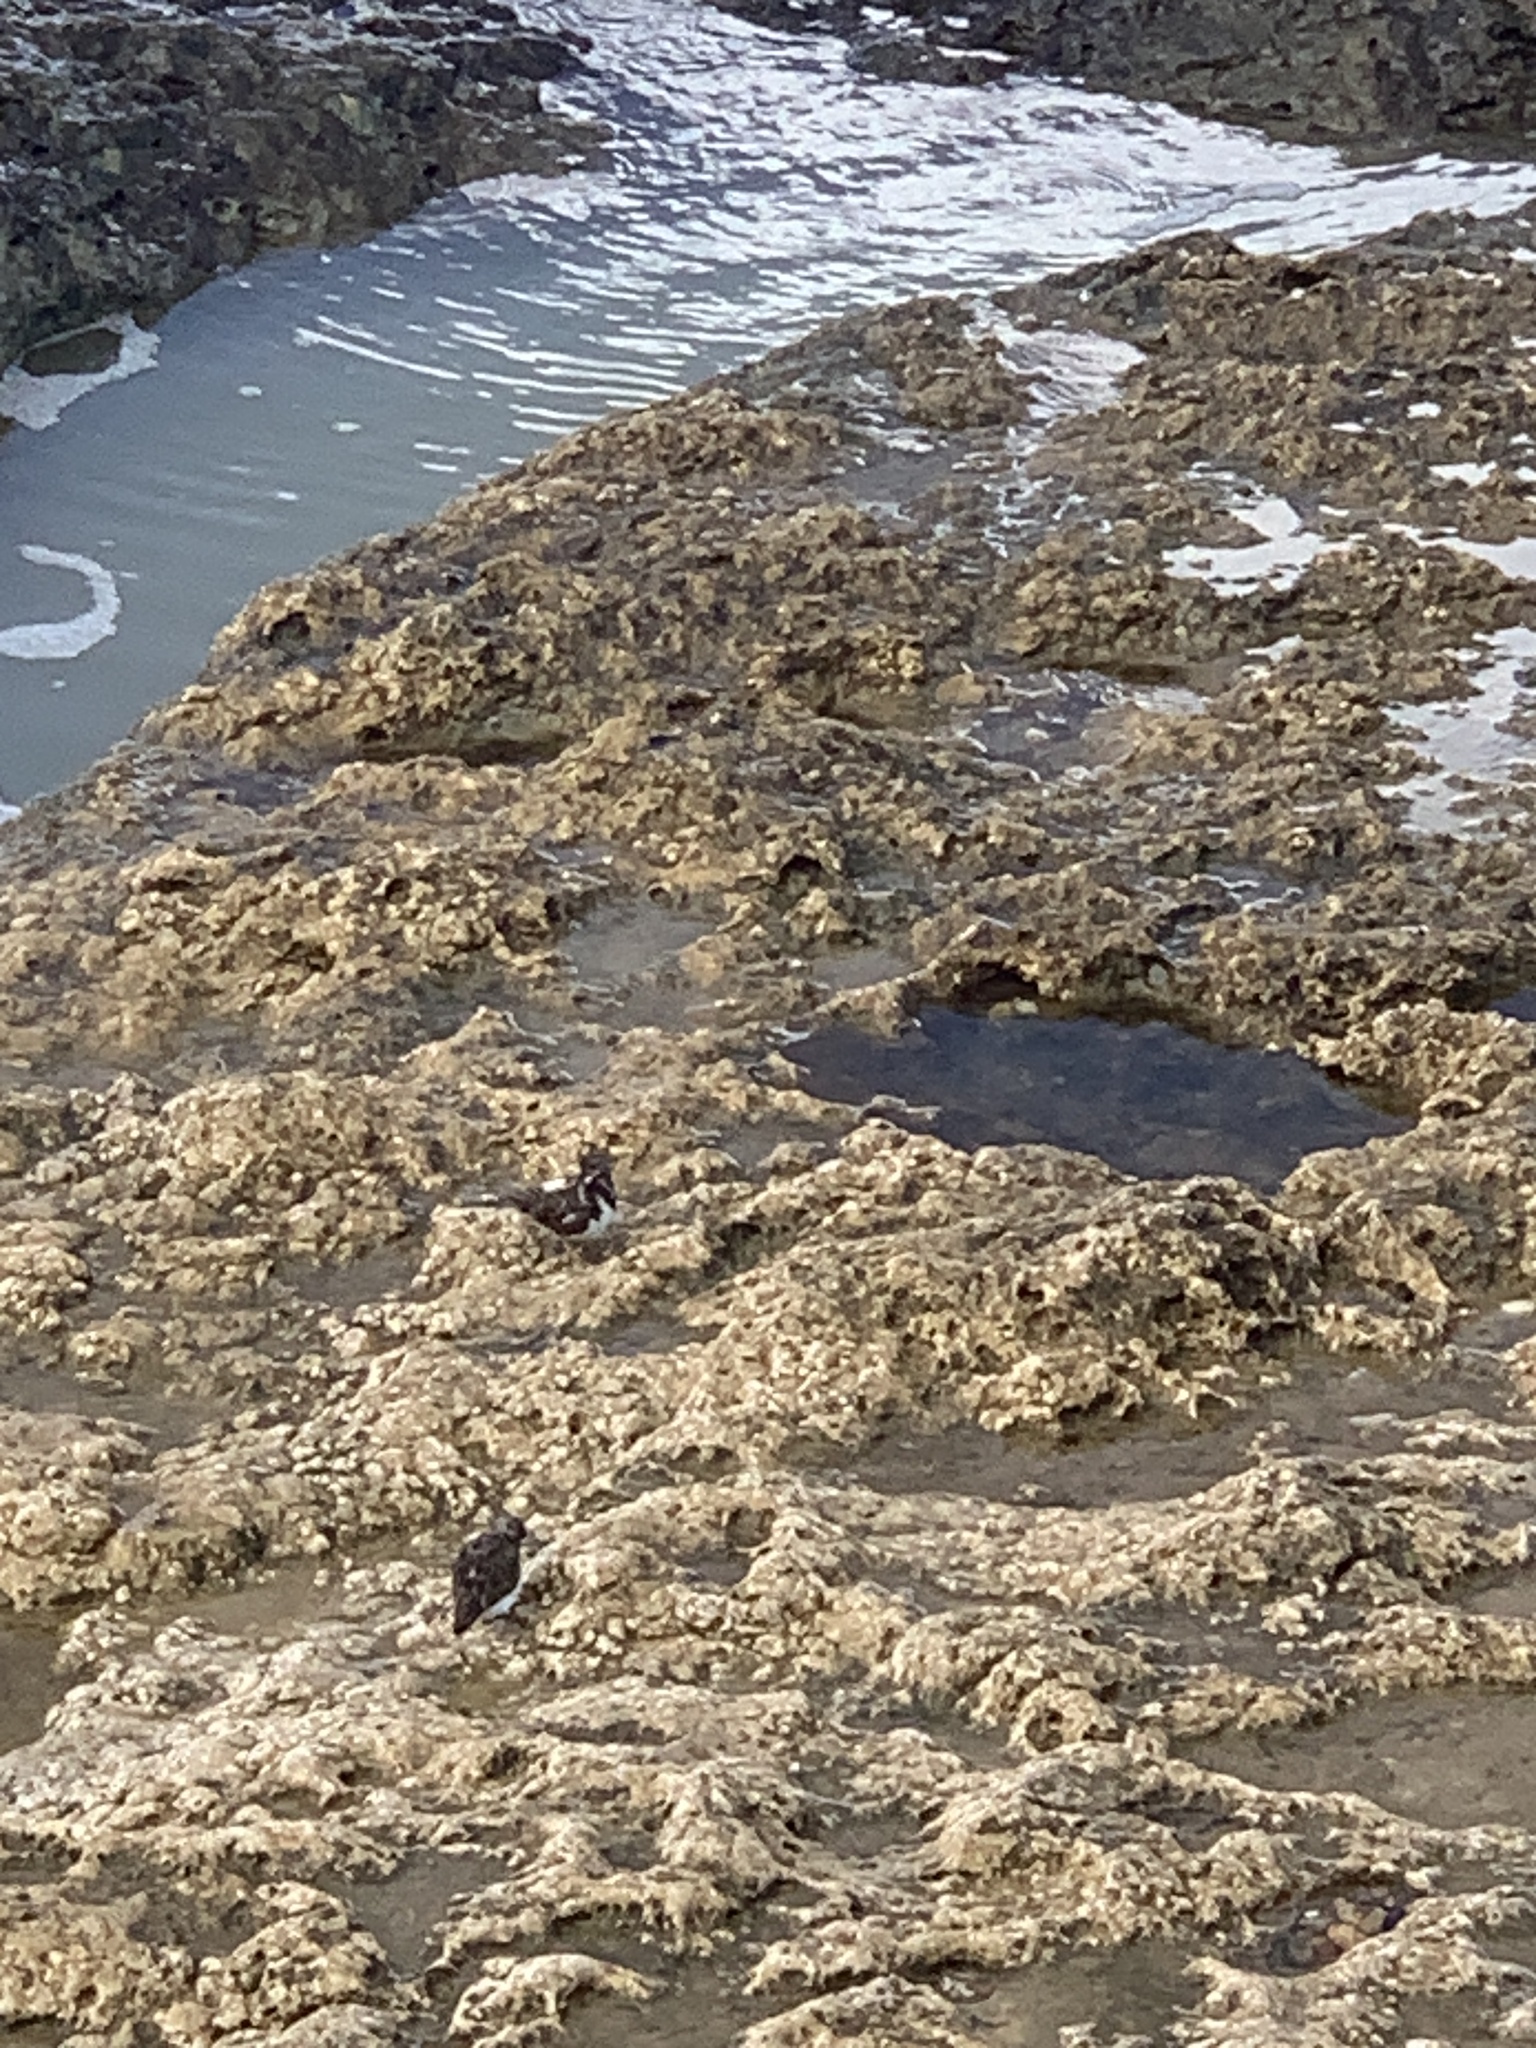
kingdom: Animalia
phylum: Chordata
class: Aves
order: Charadriiformes
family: Scolopacidae
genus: Arenaria
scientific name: Arenaria interpres
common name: Ruddy turnstone
